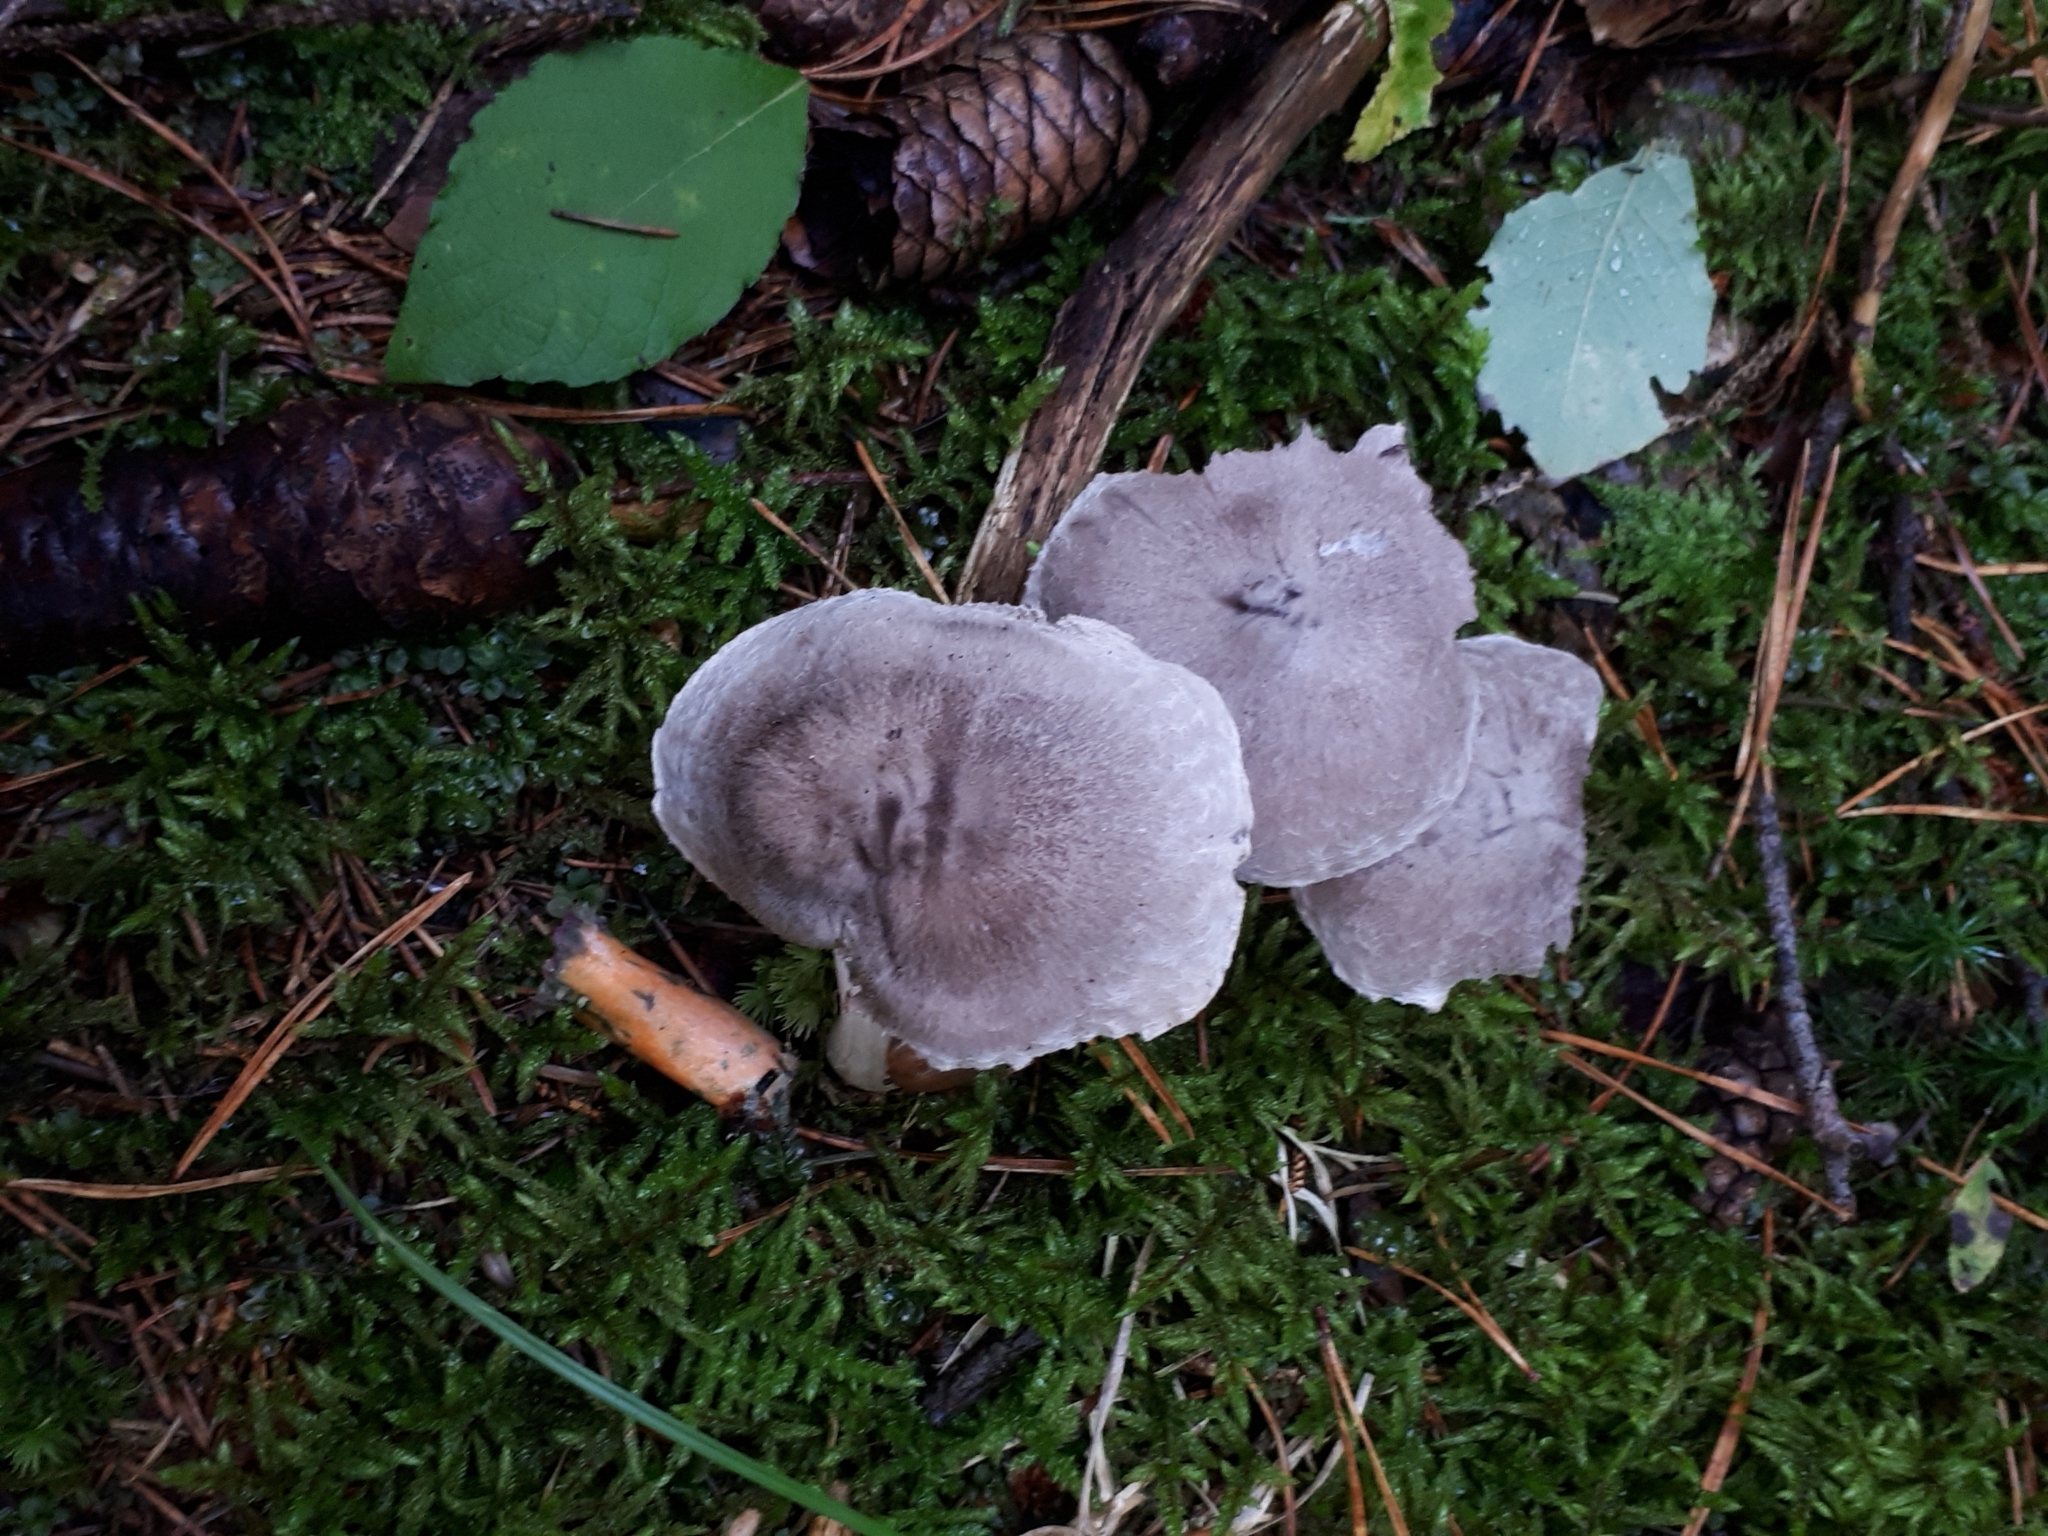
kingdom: Fungi
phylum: Basidiomycota
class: Agaricomycetes
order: Agaricales
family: Tricholomataceae
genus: Tricholoma
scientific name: Tricholoma terreum
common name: Grey knight
